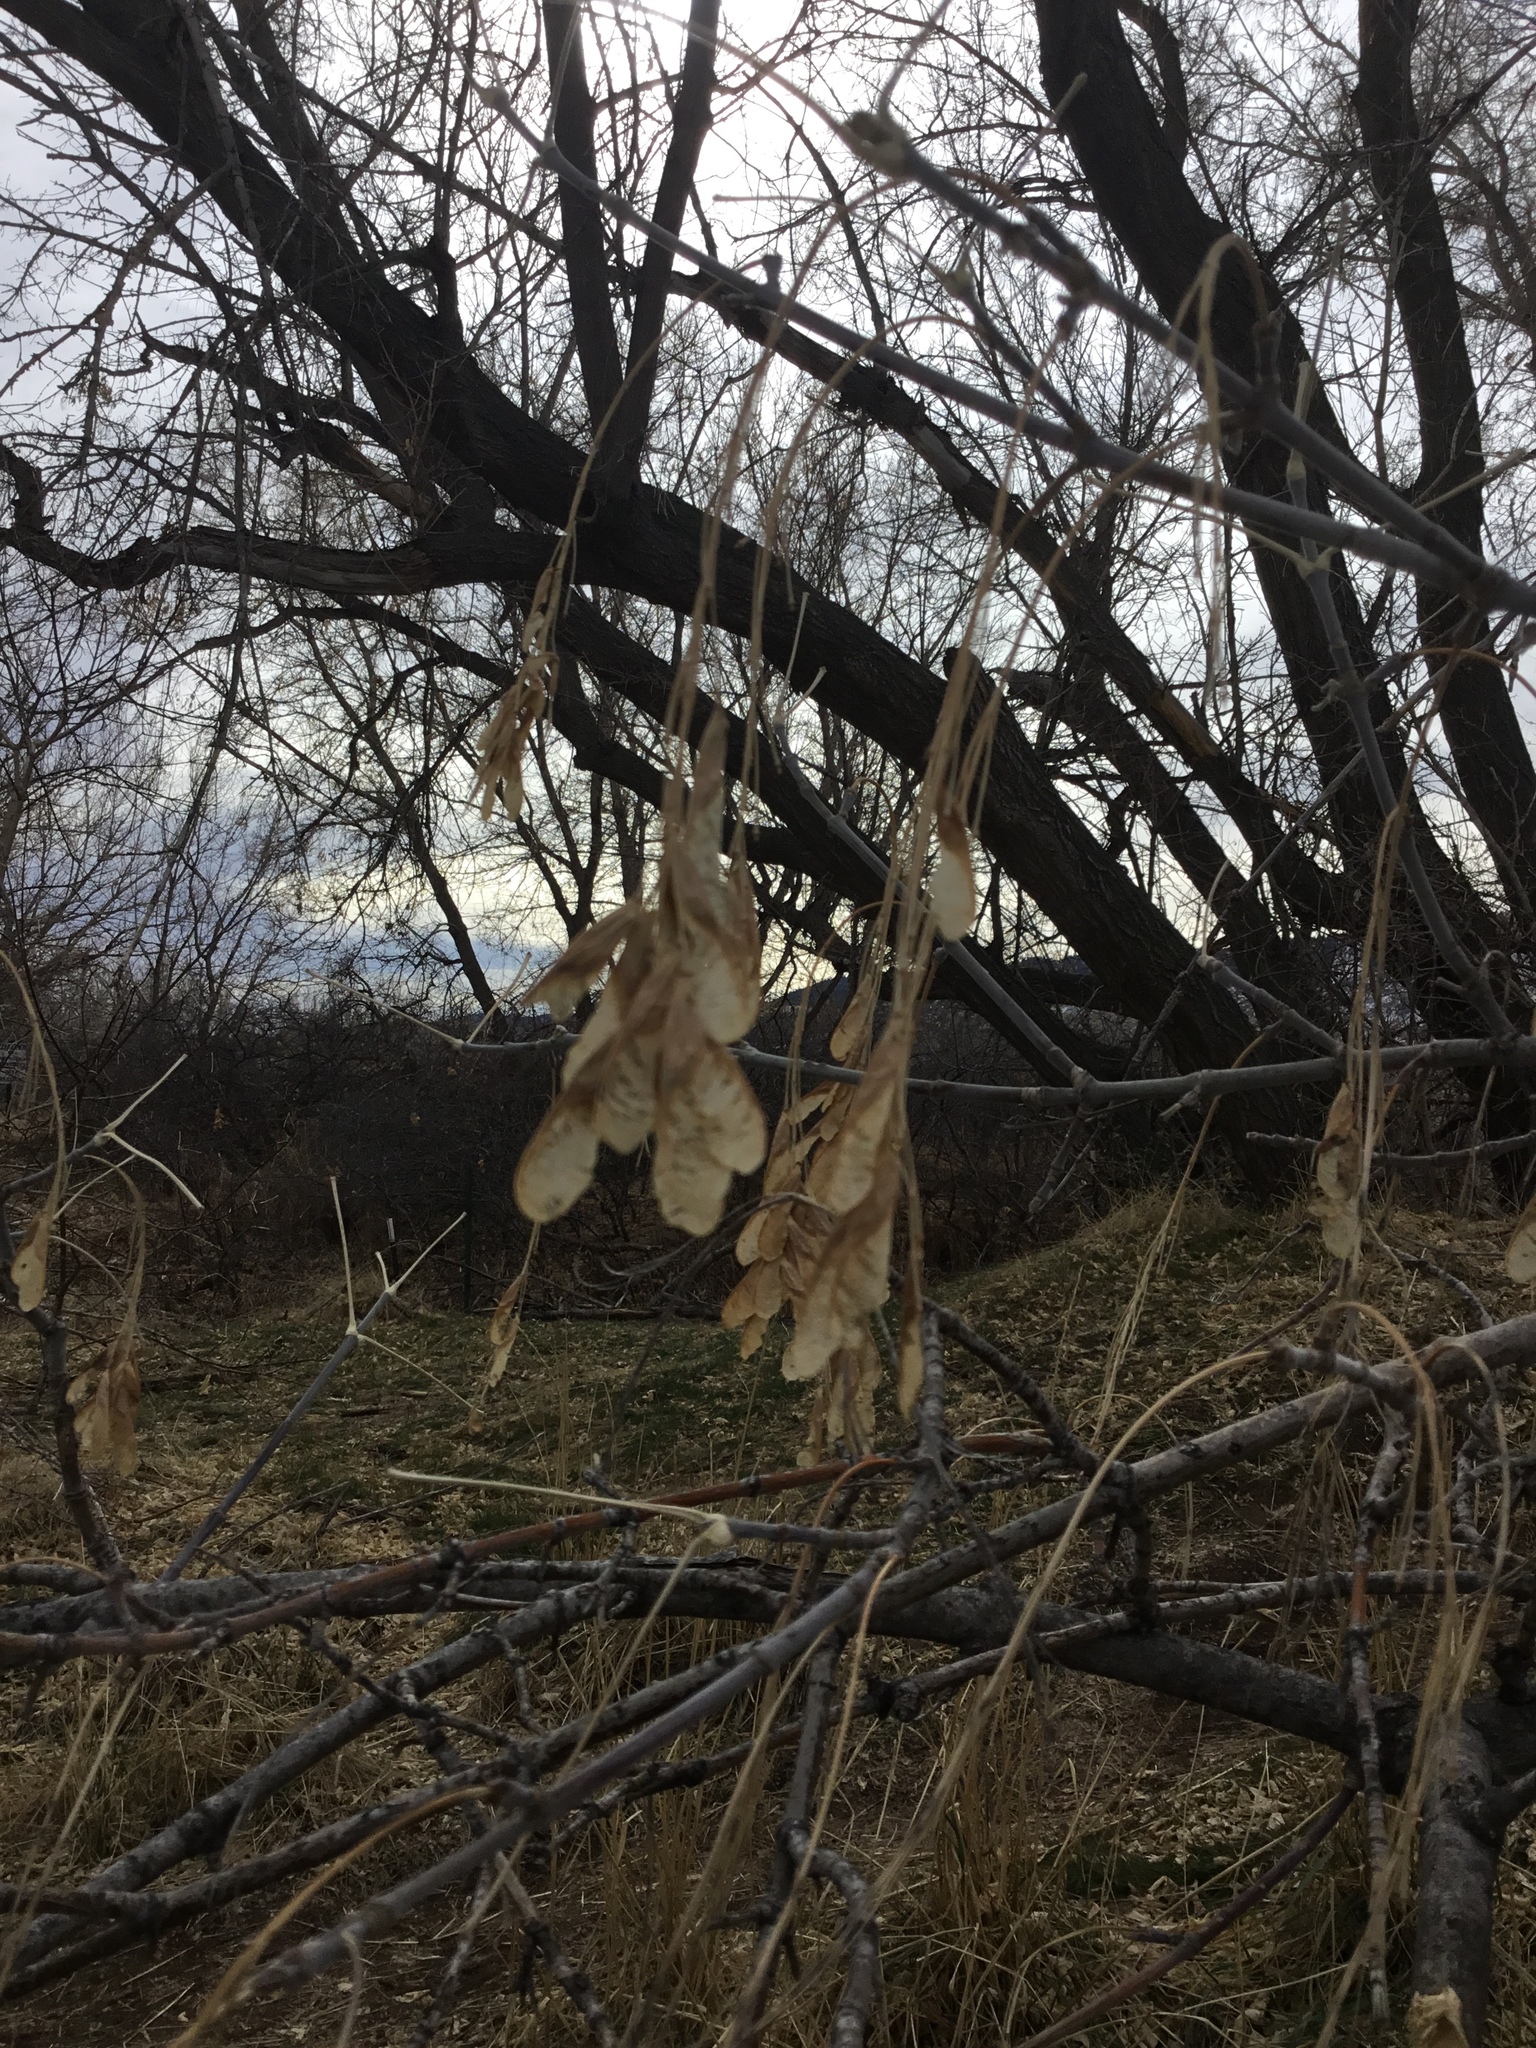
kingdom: Plantae
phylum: Tracheophyta
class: Magnoliopsida
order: Sapindales
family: Sapindaceae
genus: Acer
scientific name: Acer negundo
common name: Ashleaf maple
